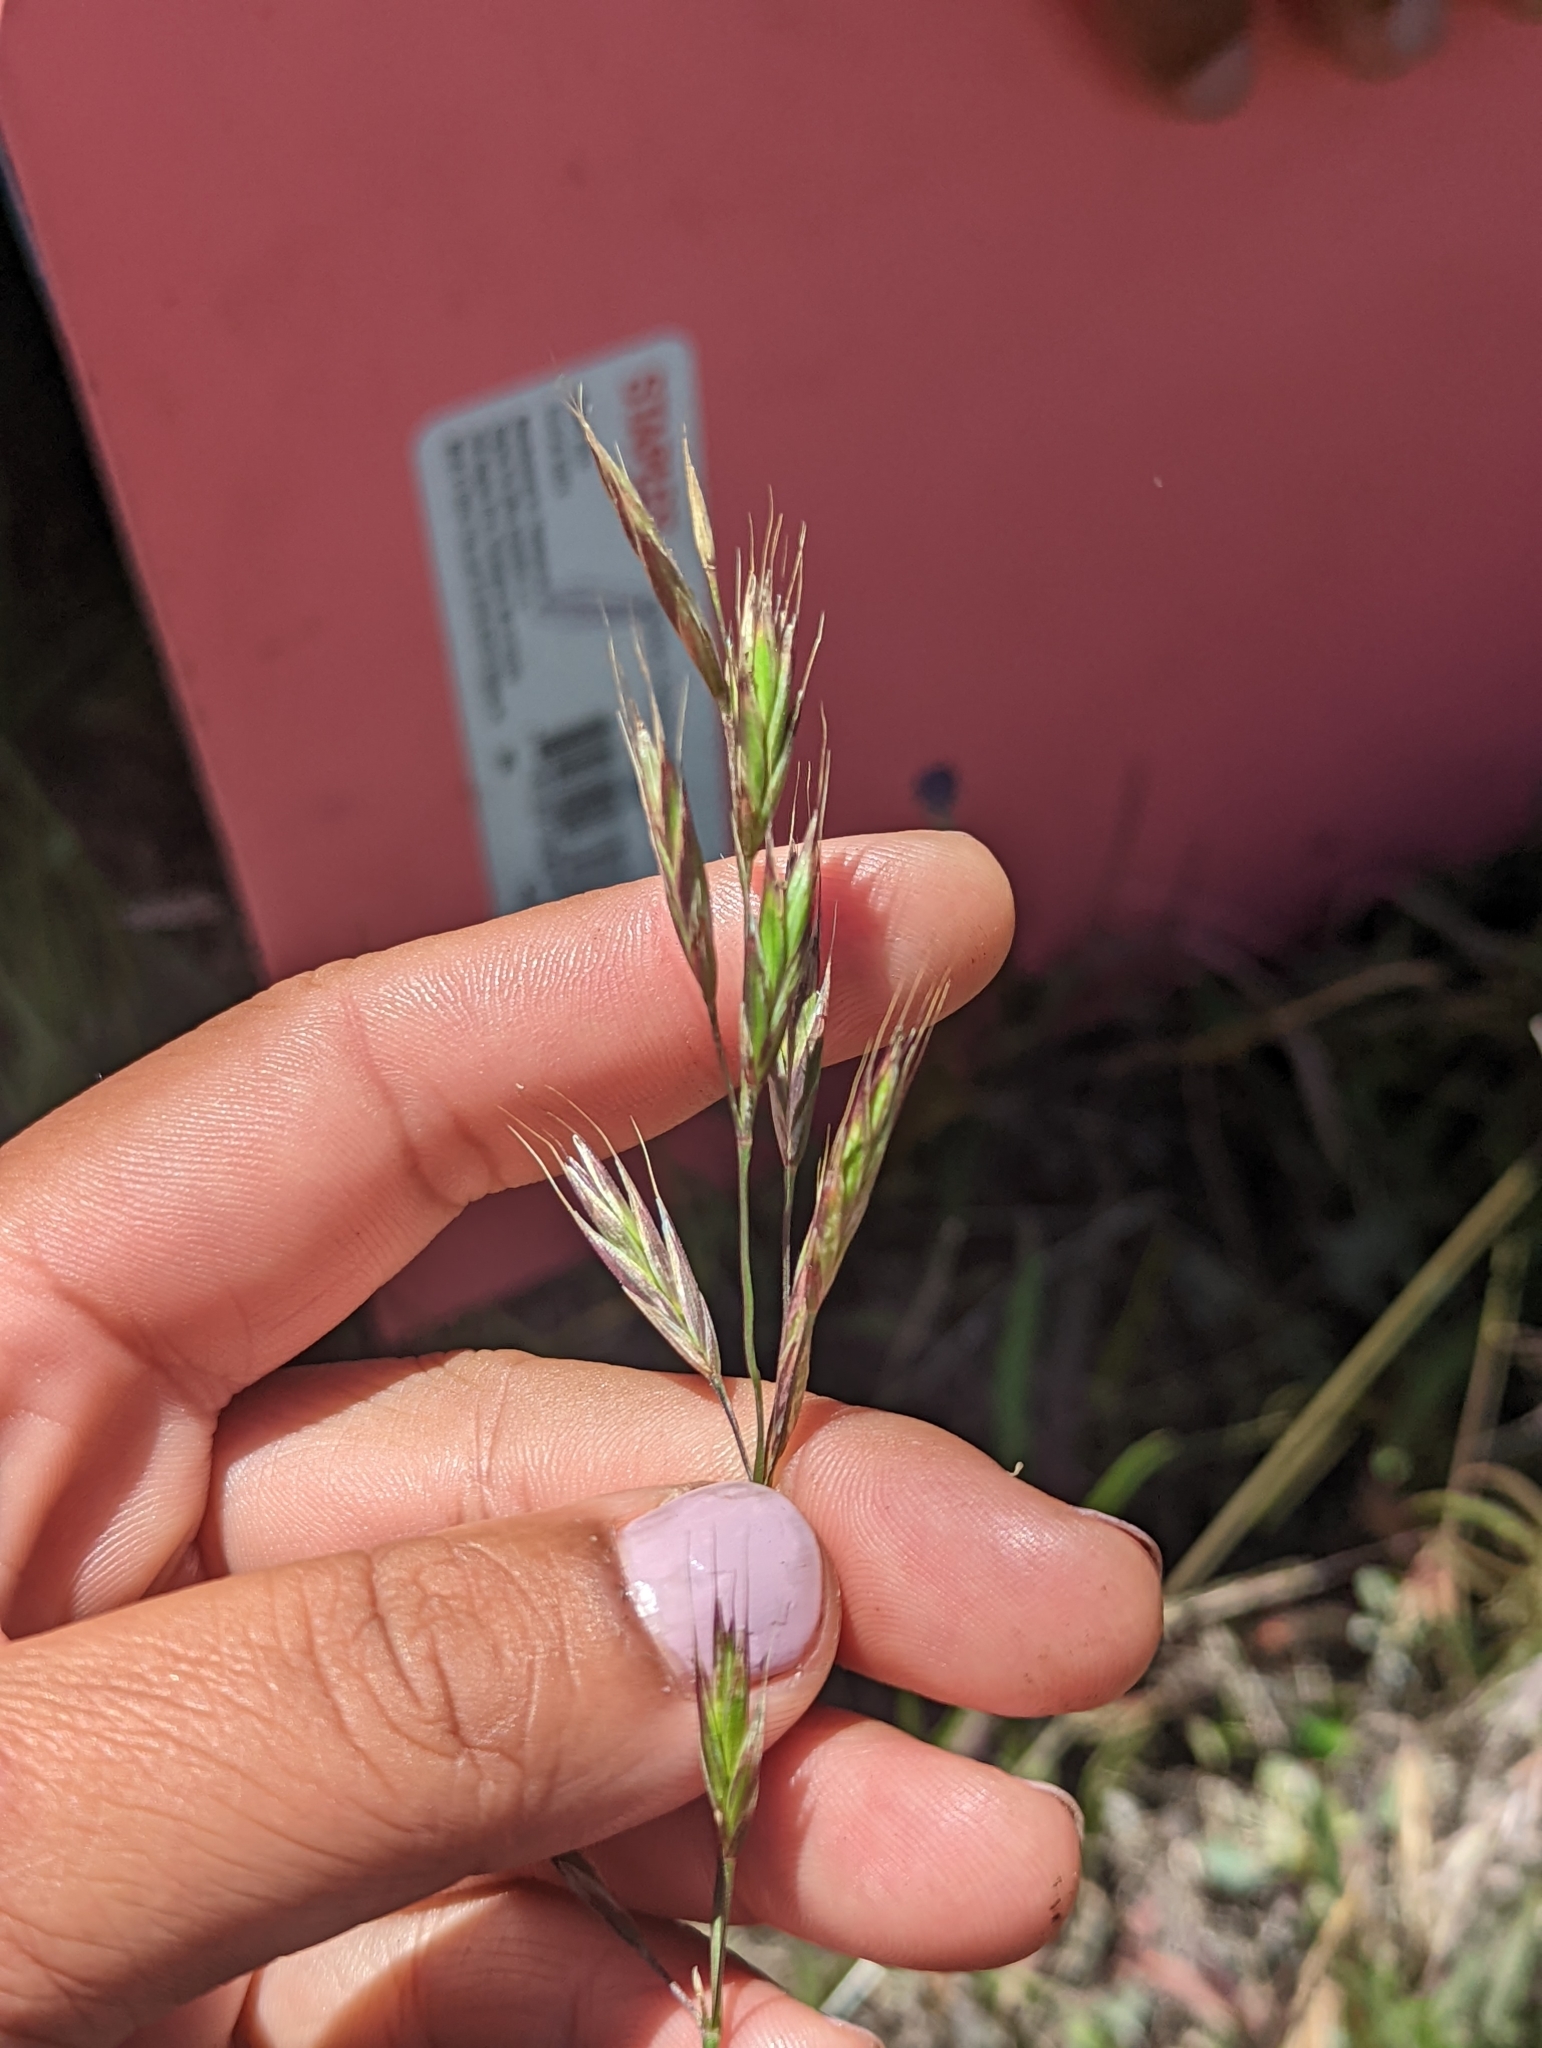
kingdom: Plantae
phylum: Tracheophyta
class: Liliopsida
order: Poales
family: Poaceae
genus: Bromus
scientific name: Bromus carinatus
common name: Mountain brome
